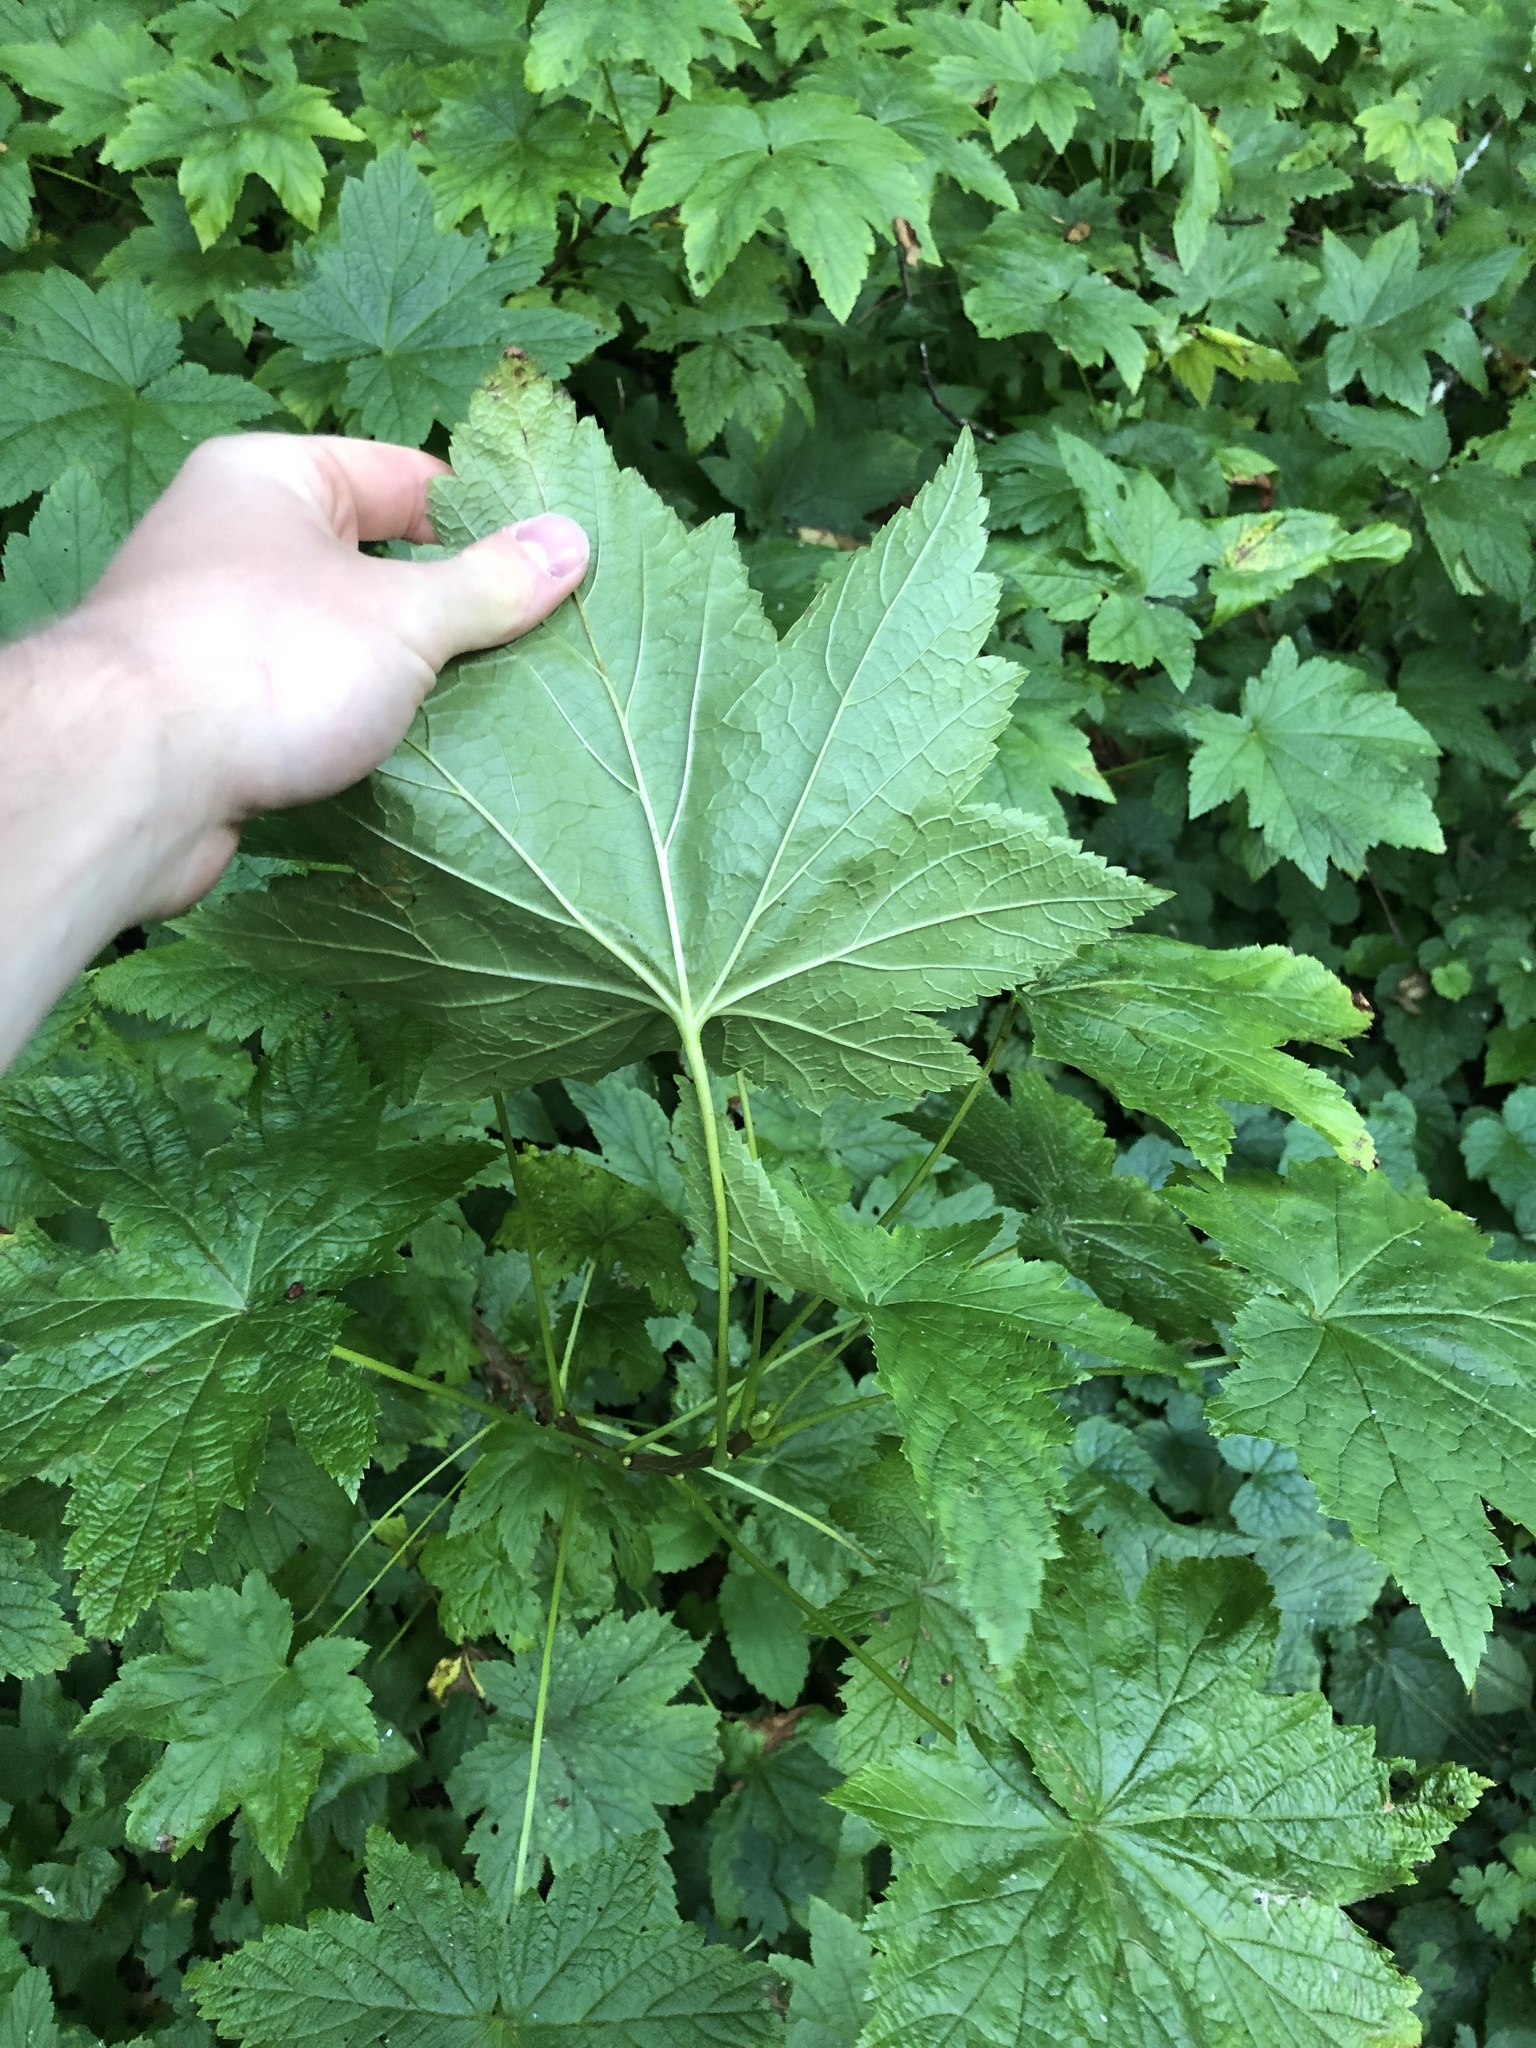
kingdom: Plantae
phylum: Tracheophyta
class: Magnoliopsida
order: Saxifragales
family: Grossulariaceae
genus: Ribes
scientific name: Ribes bracteosum
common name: California black currant
